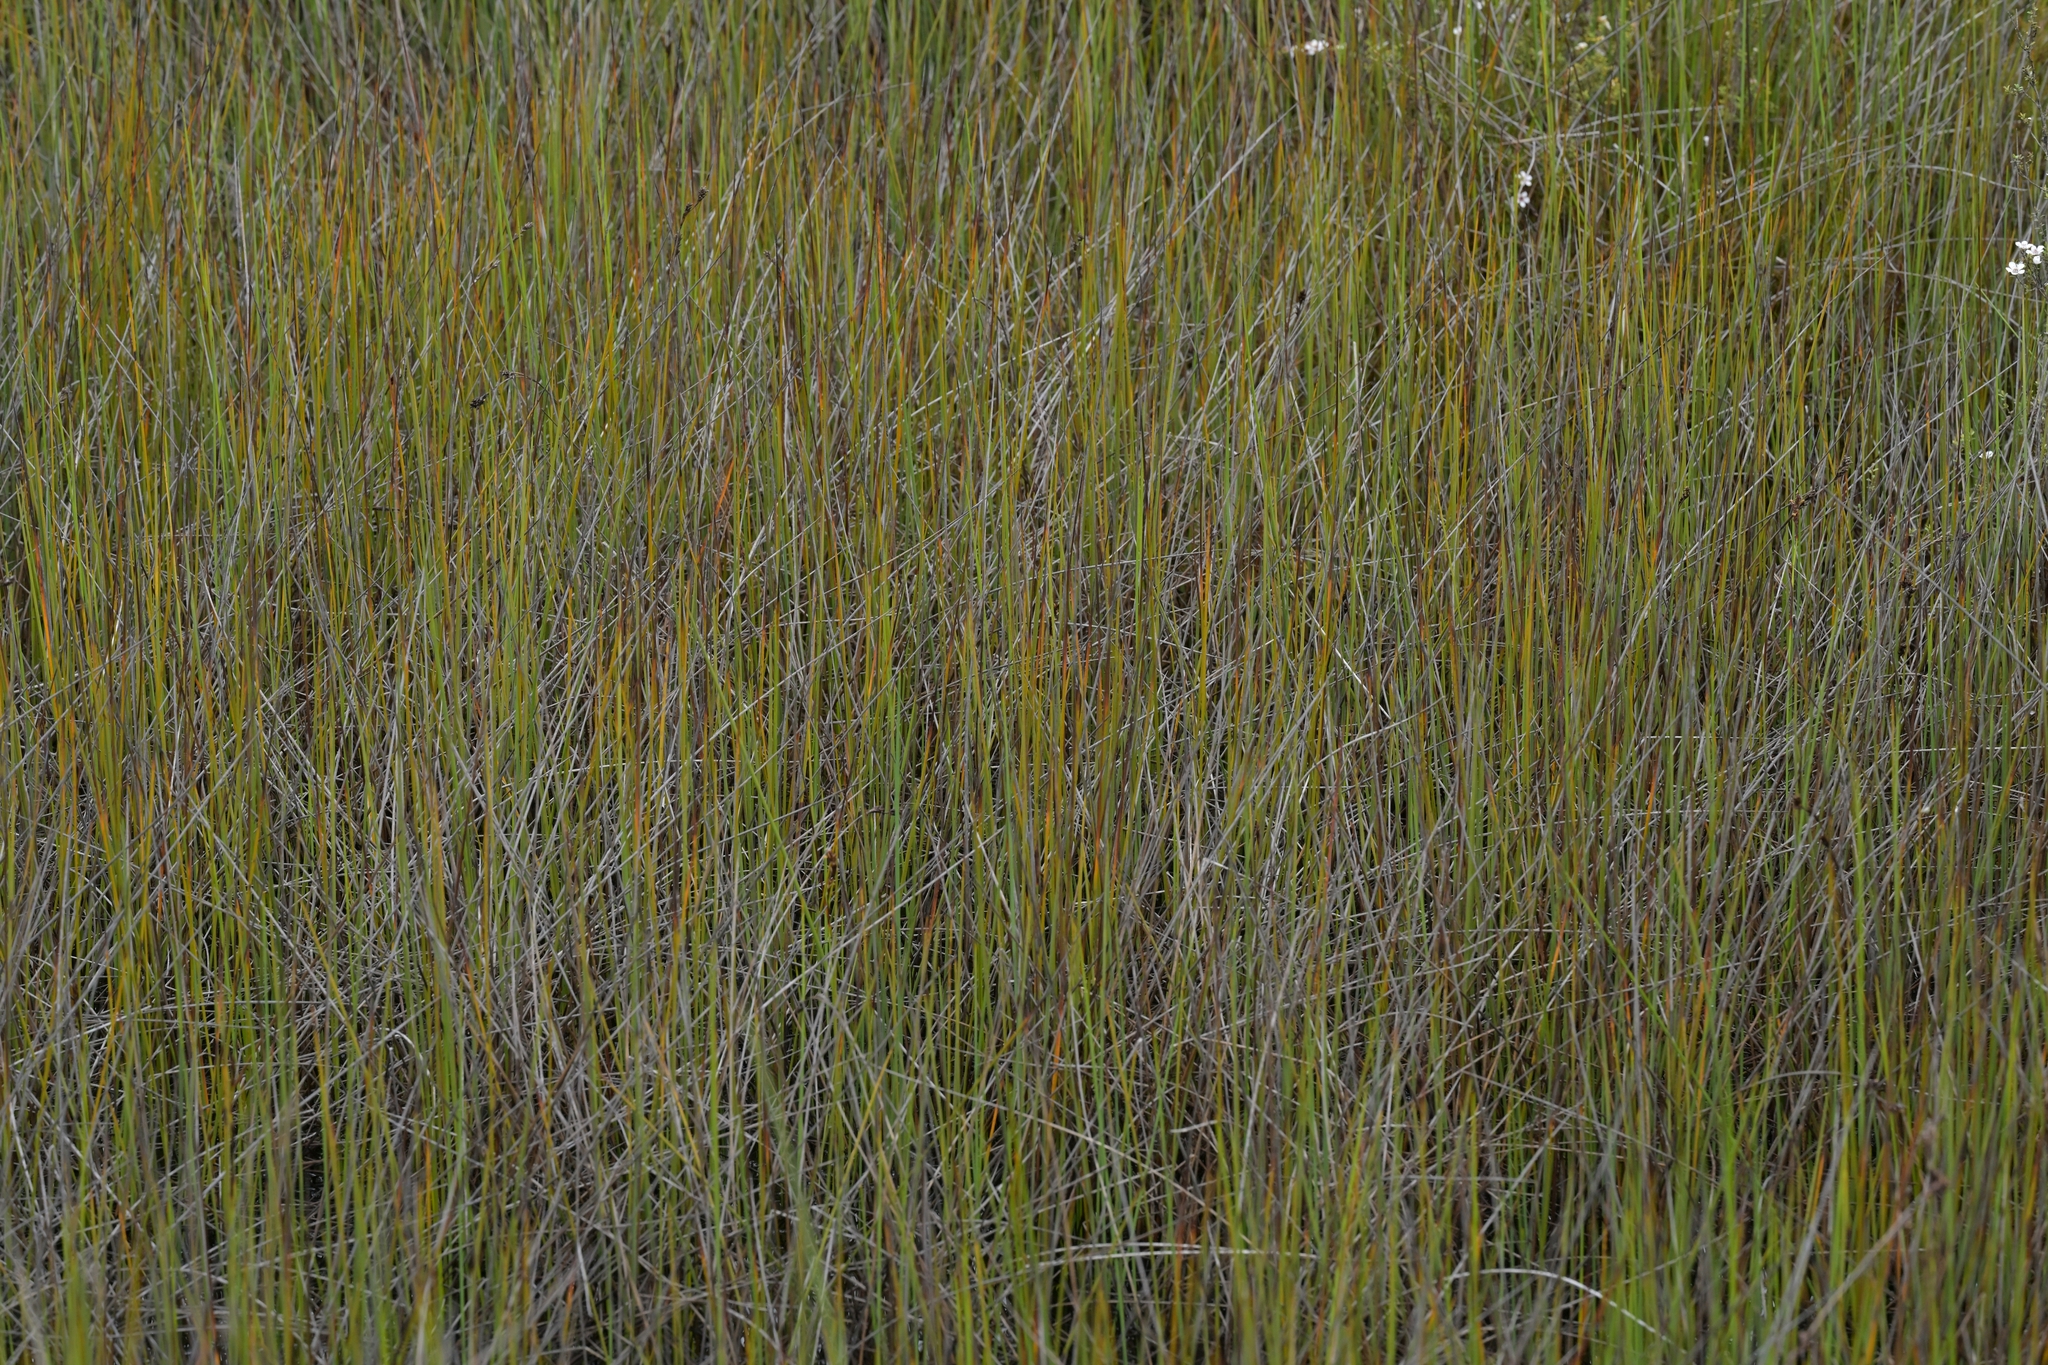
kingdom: Plantae
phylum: Tracheophyta
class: Liliopsida
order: Poales
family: Cyperaceae
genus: Lepidosperma
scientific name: Lepidosperma australe
